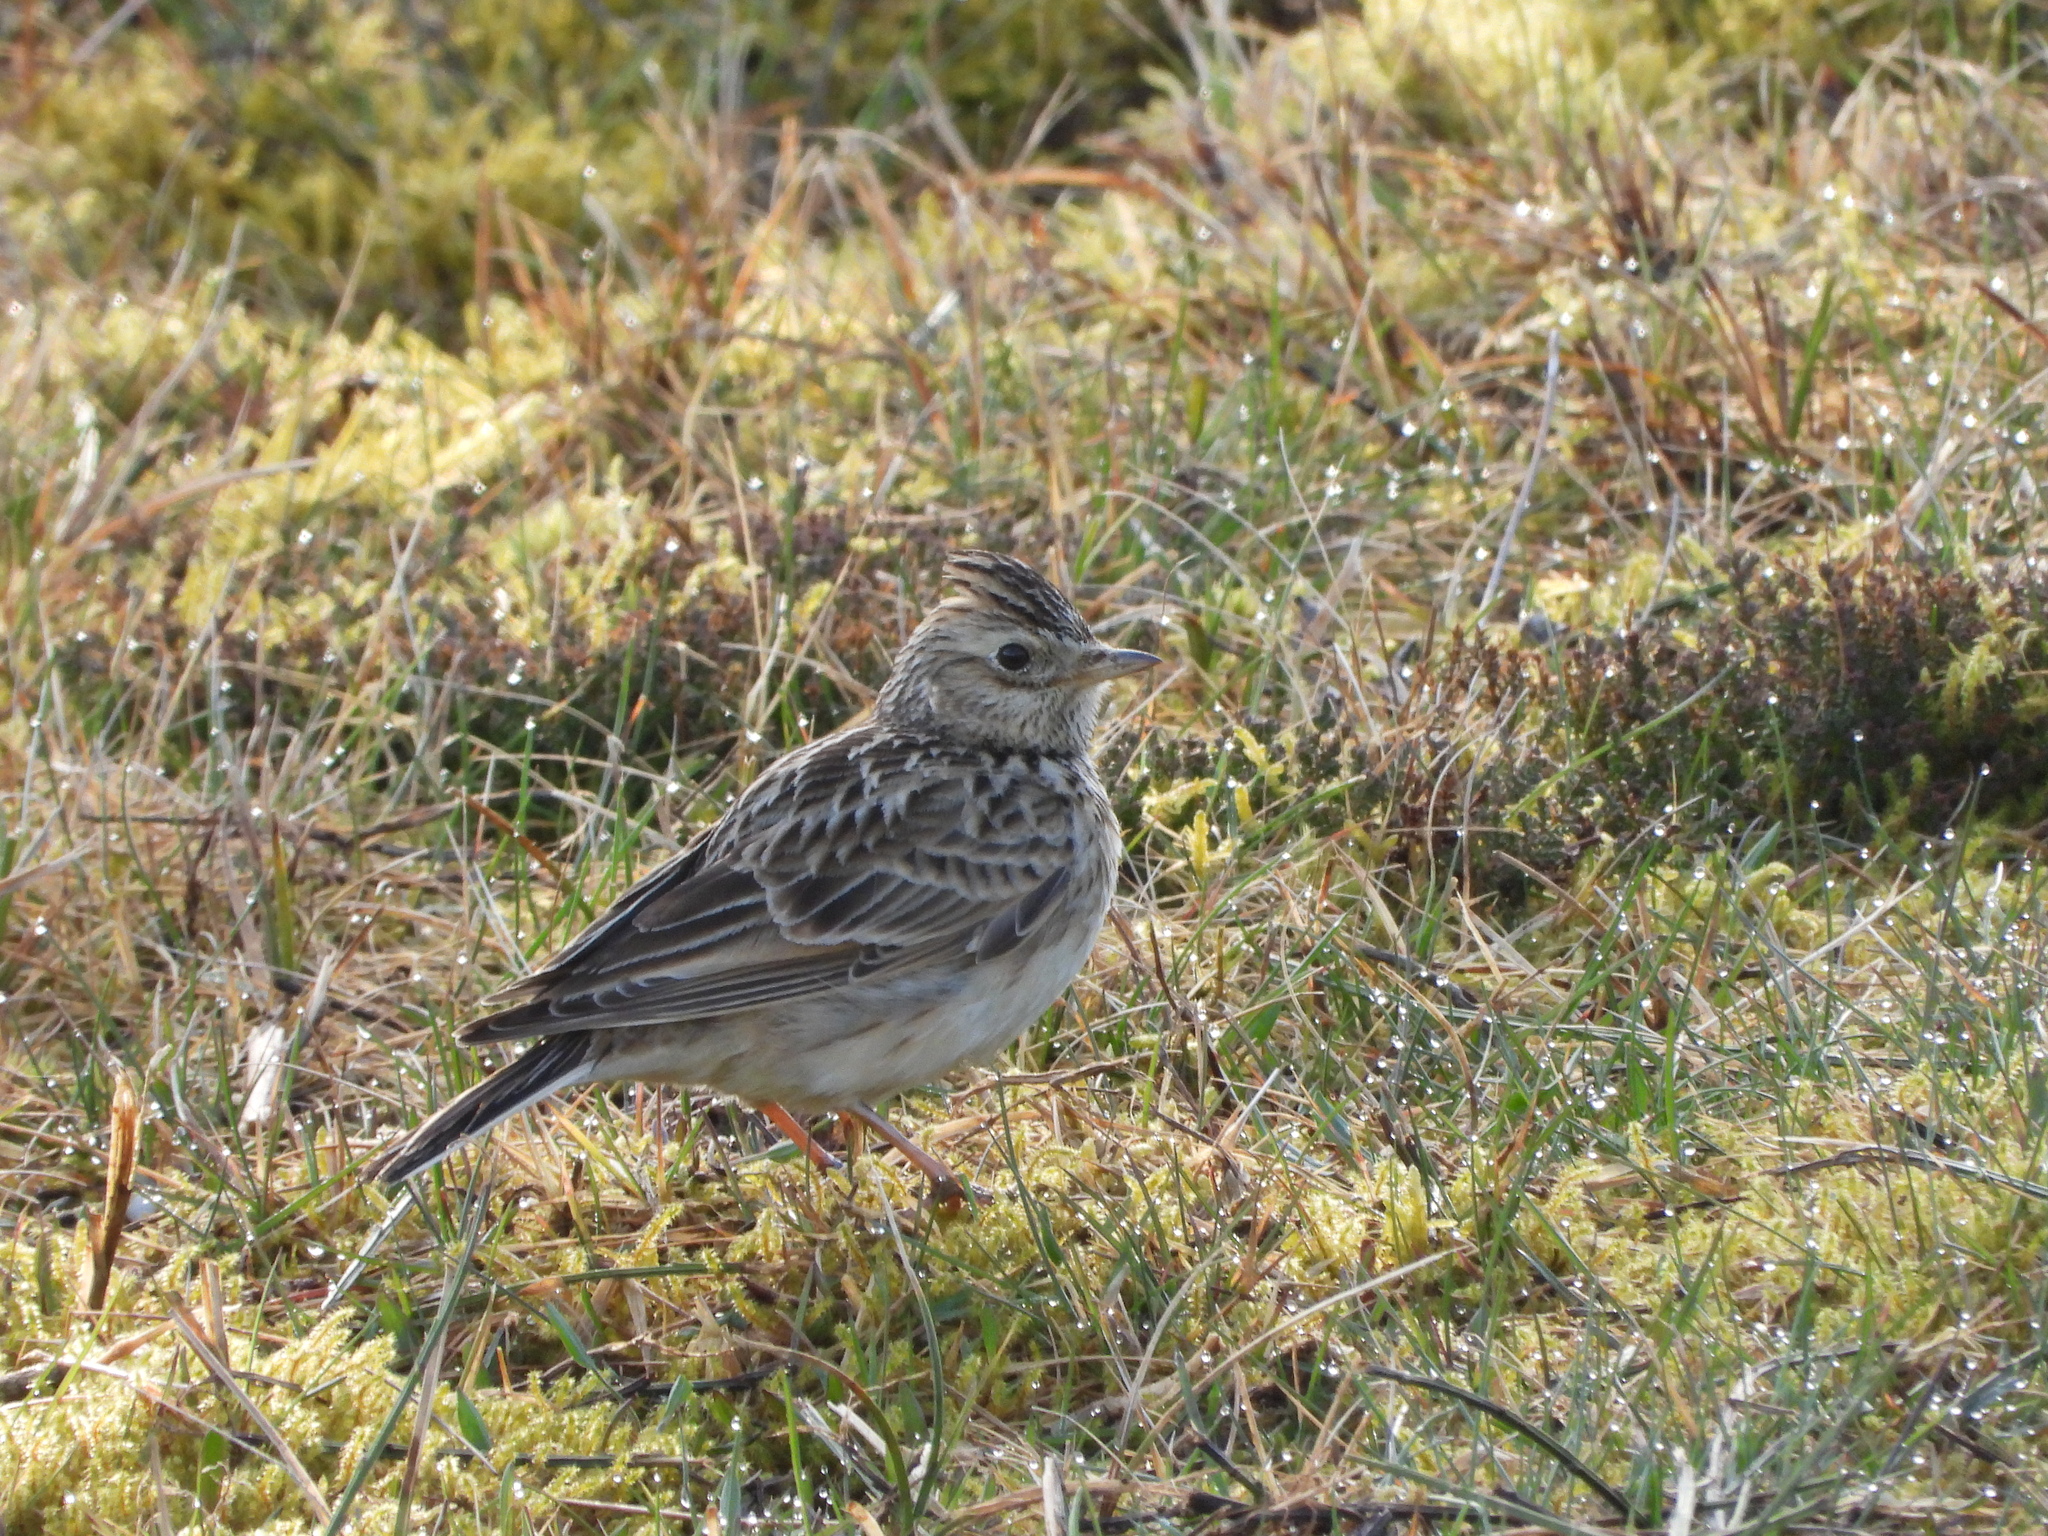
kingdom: Animalia
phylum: Chordata
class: Aves
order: Passeriformes
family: Alaudidae
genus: Alauda
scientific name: Alauda arvensis
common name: Eurasian skylark
